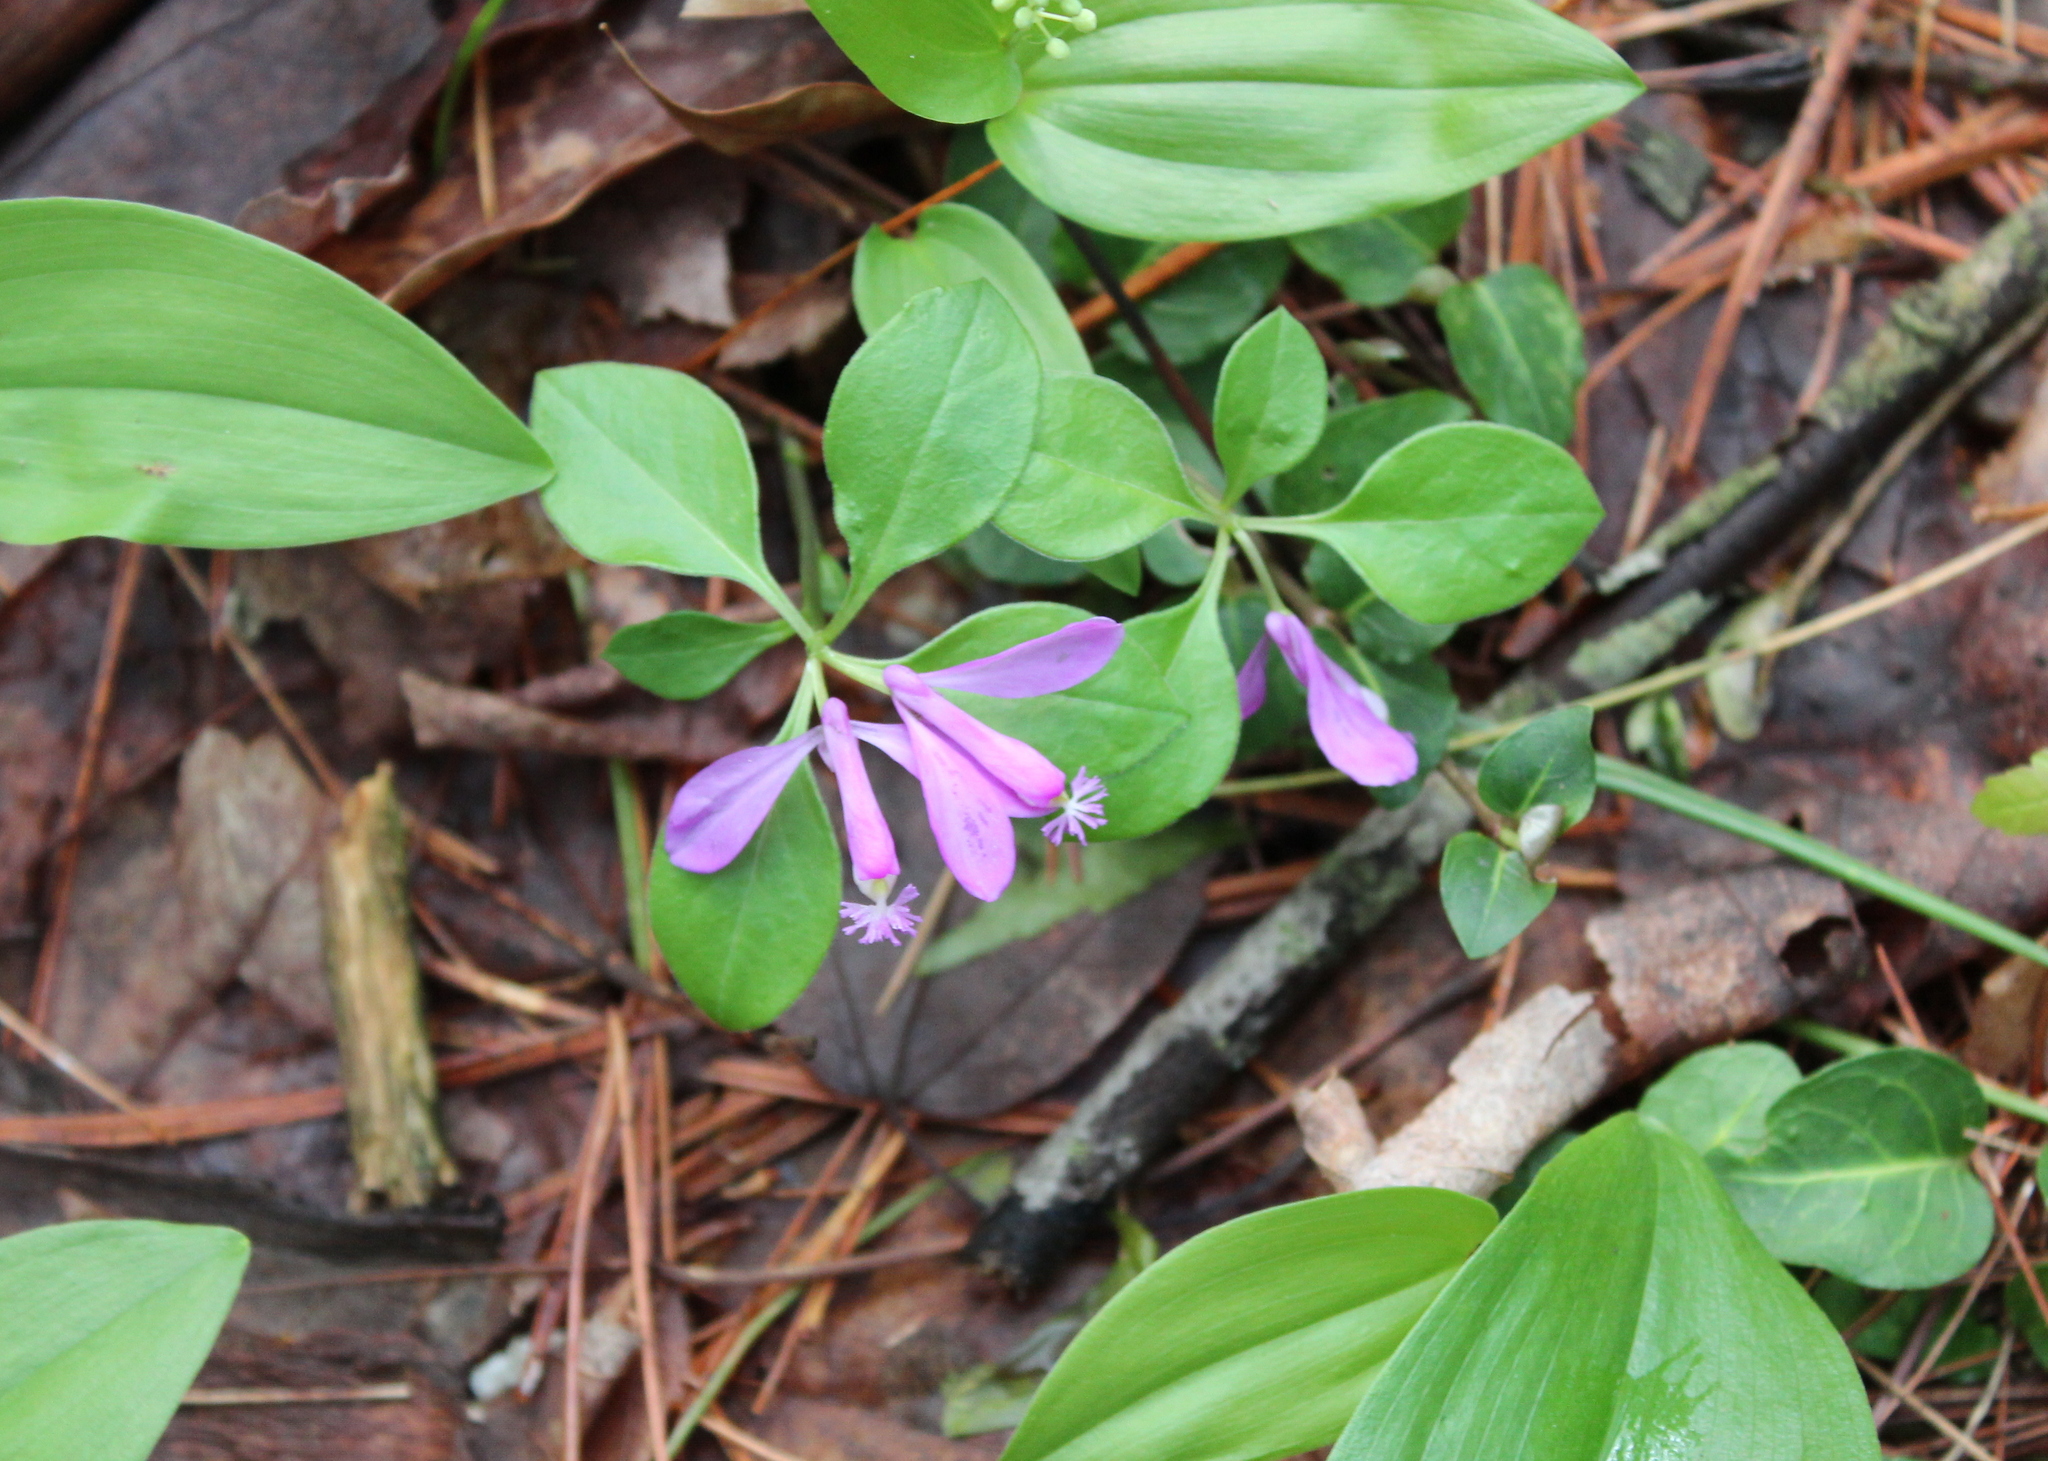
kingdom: Plantae
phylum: Tracheophyta
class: Magnoliopsida
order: Fabales
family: Polygalaceae
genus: Polygaloides
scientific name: Polygaloides paucifolia
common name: Bird-on-the-wing
